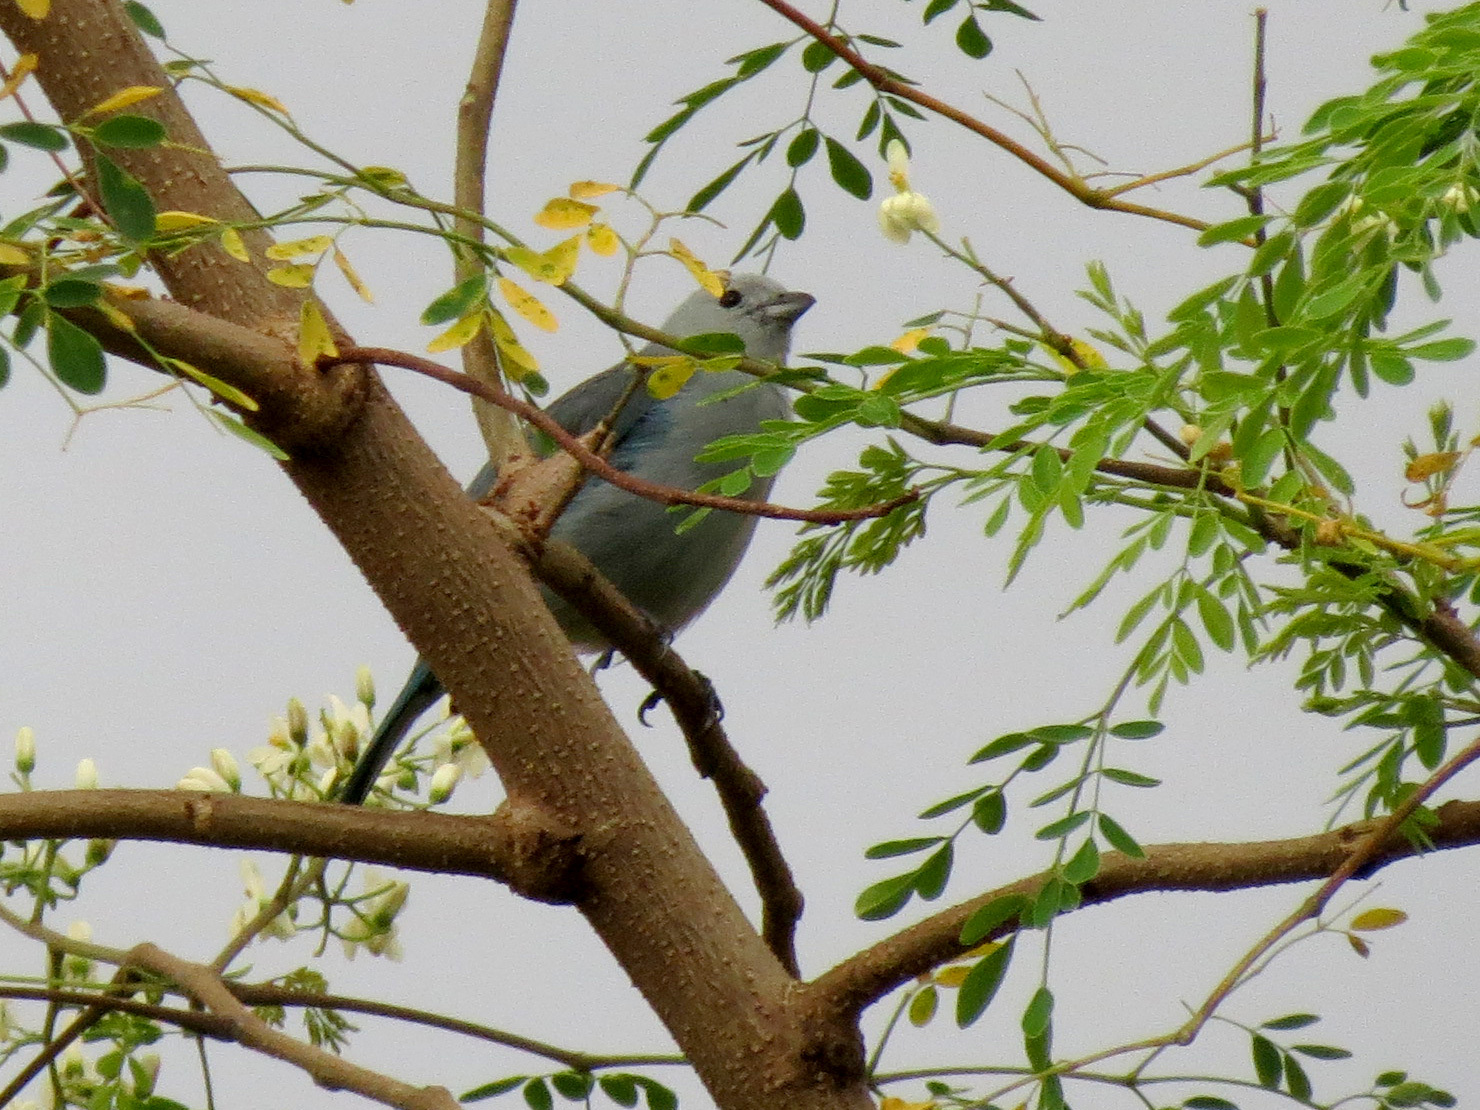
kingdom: Animalia
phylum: Chordata
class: Aves
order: Passeriformes
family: Thraupidae
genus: Thraupis
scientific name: Thraupis episcopus
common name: Blue-grey tanager
